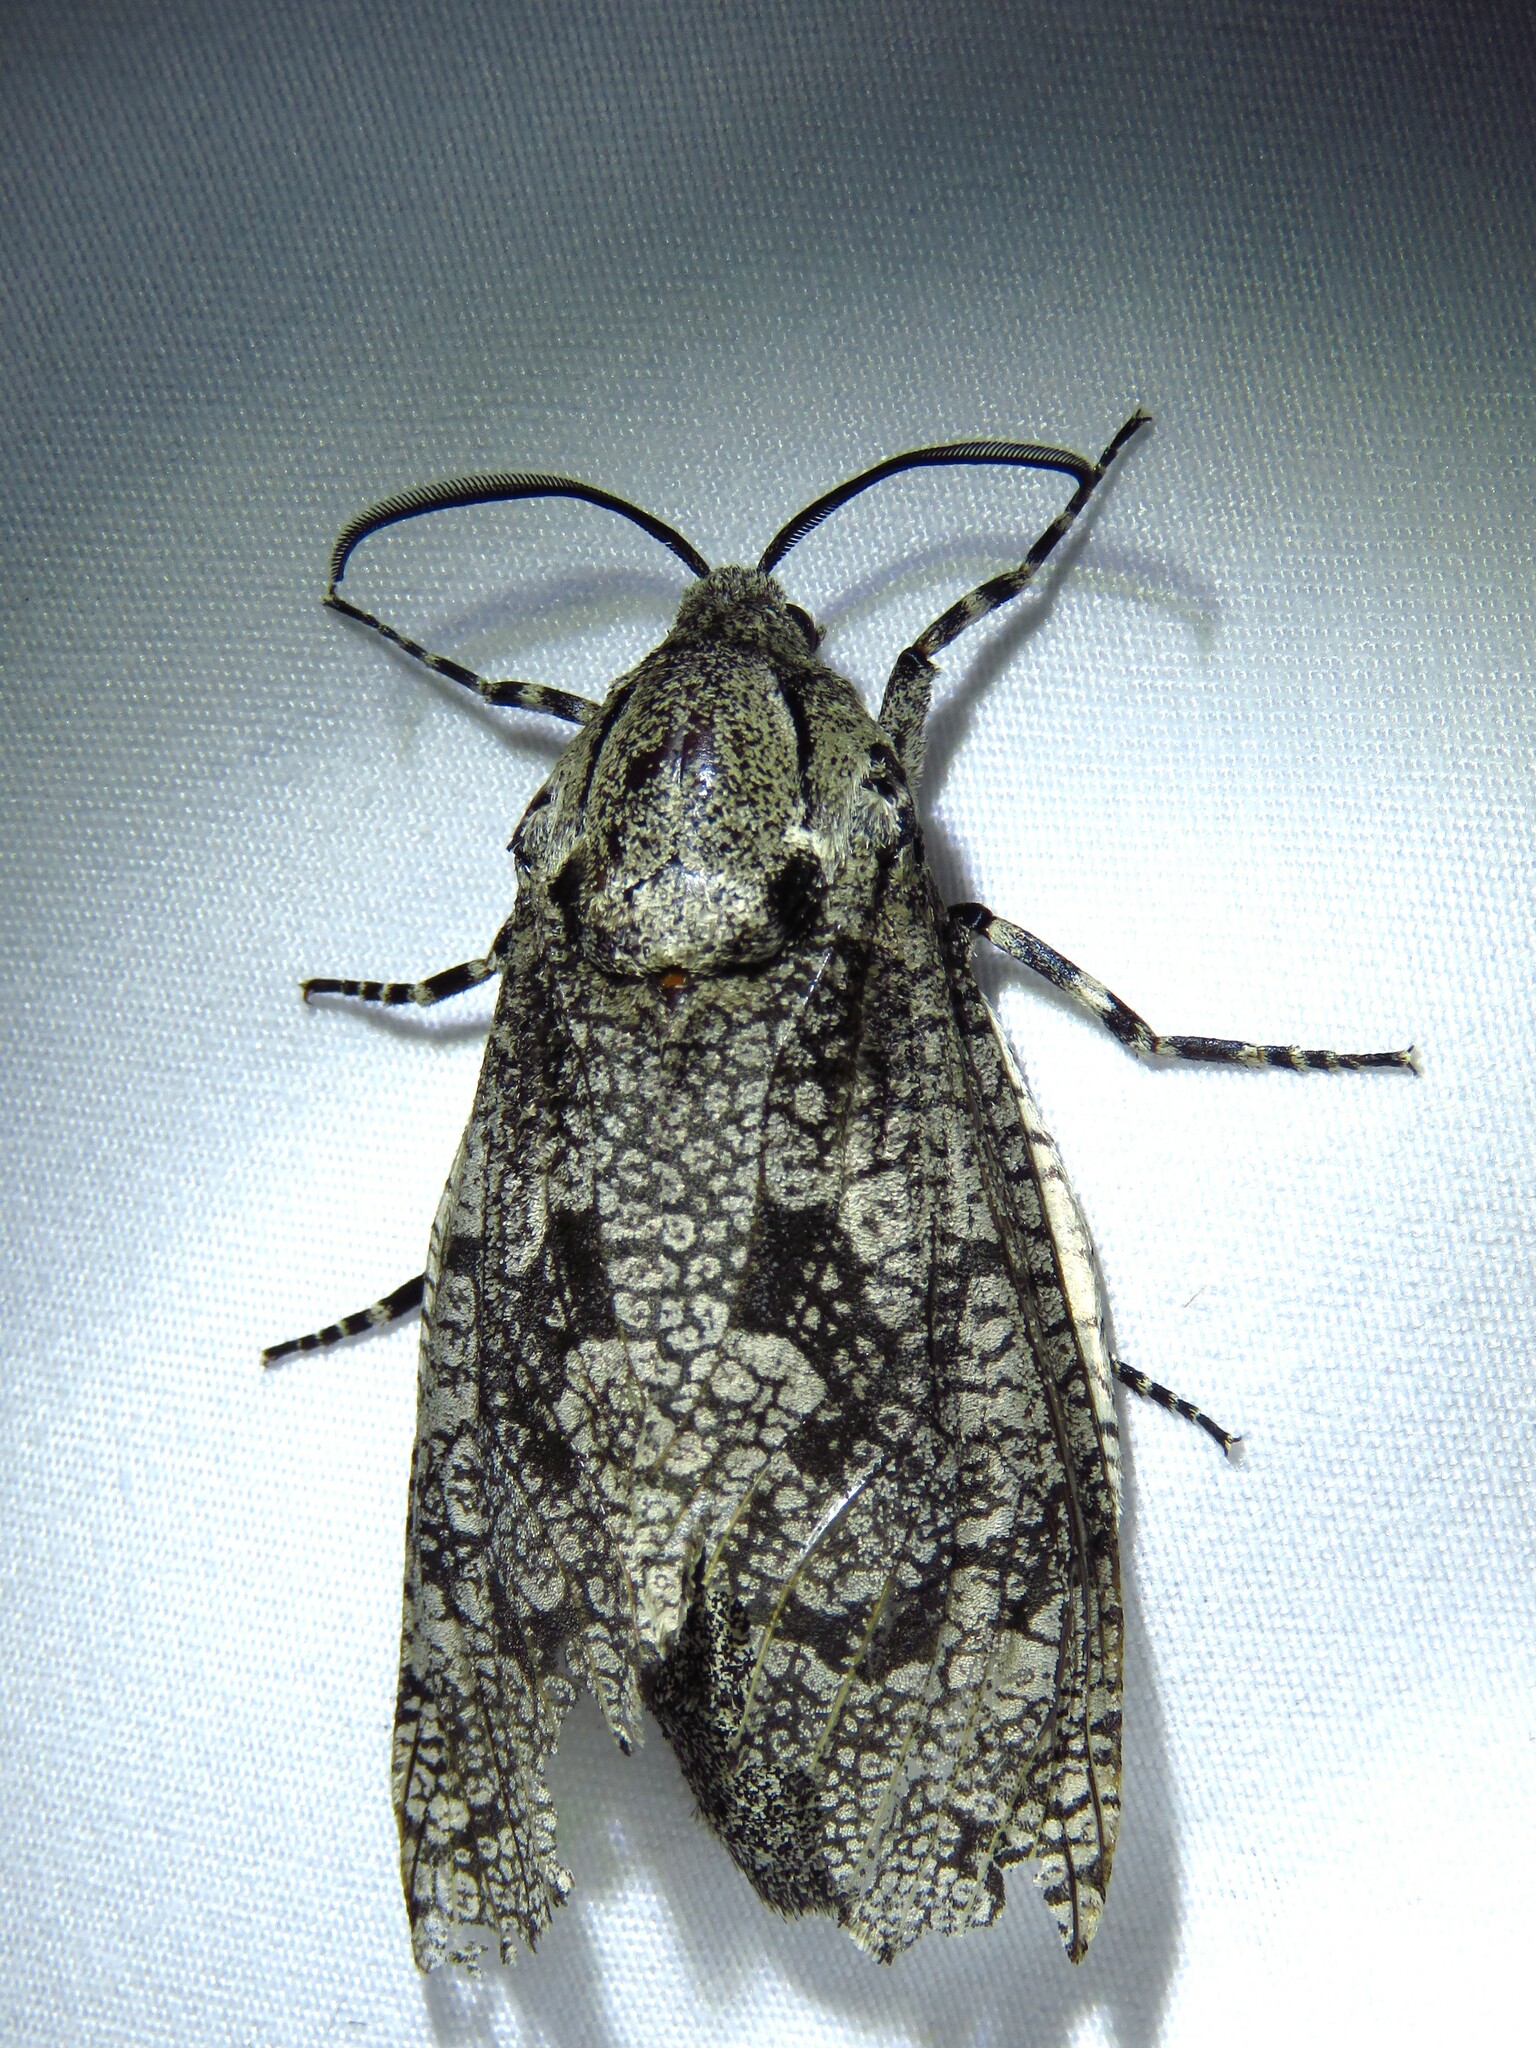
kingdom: Animalia
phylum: Arthropoda
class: Insecta
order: Lepidoptera
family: Cossidae
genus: Prionoxystus
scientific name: Prionoxystus robiniae
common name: Carpenterworm
